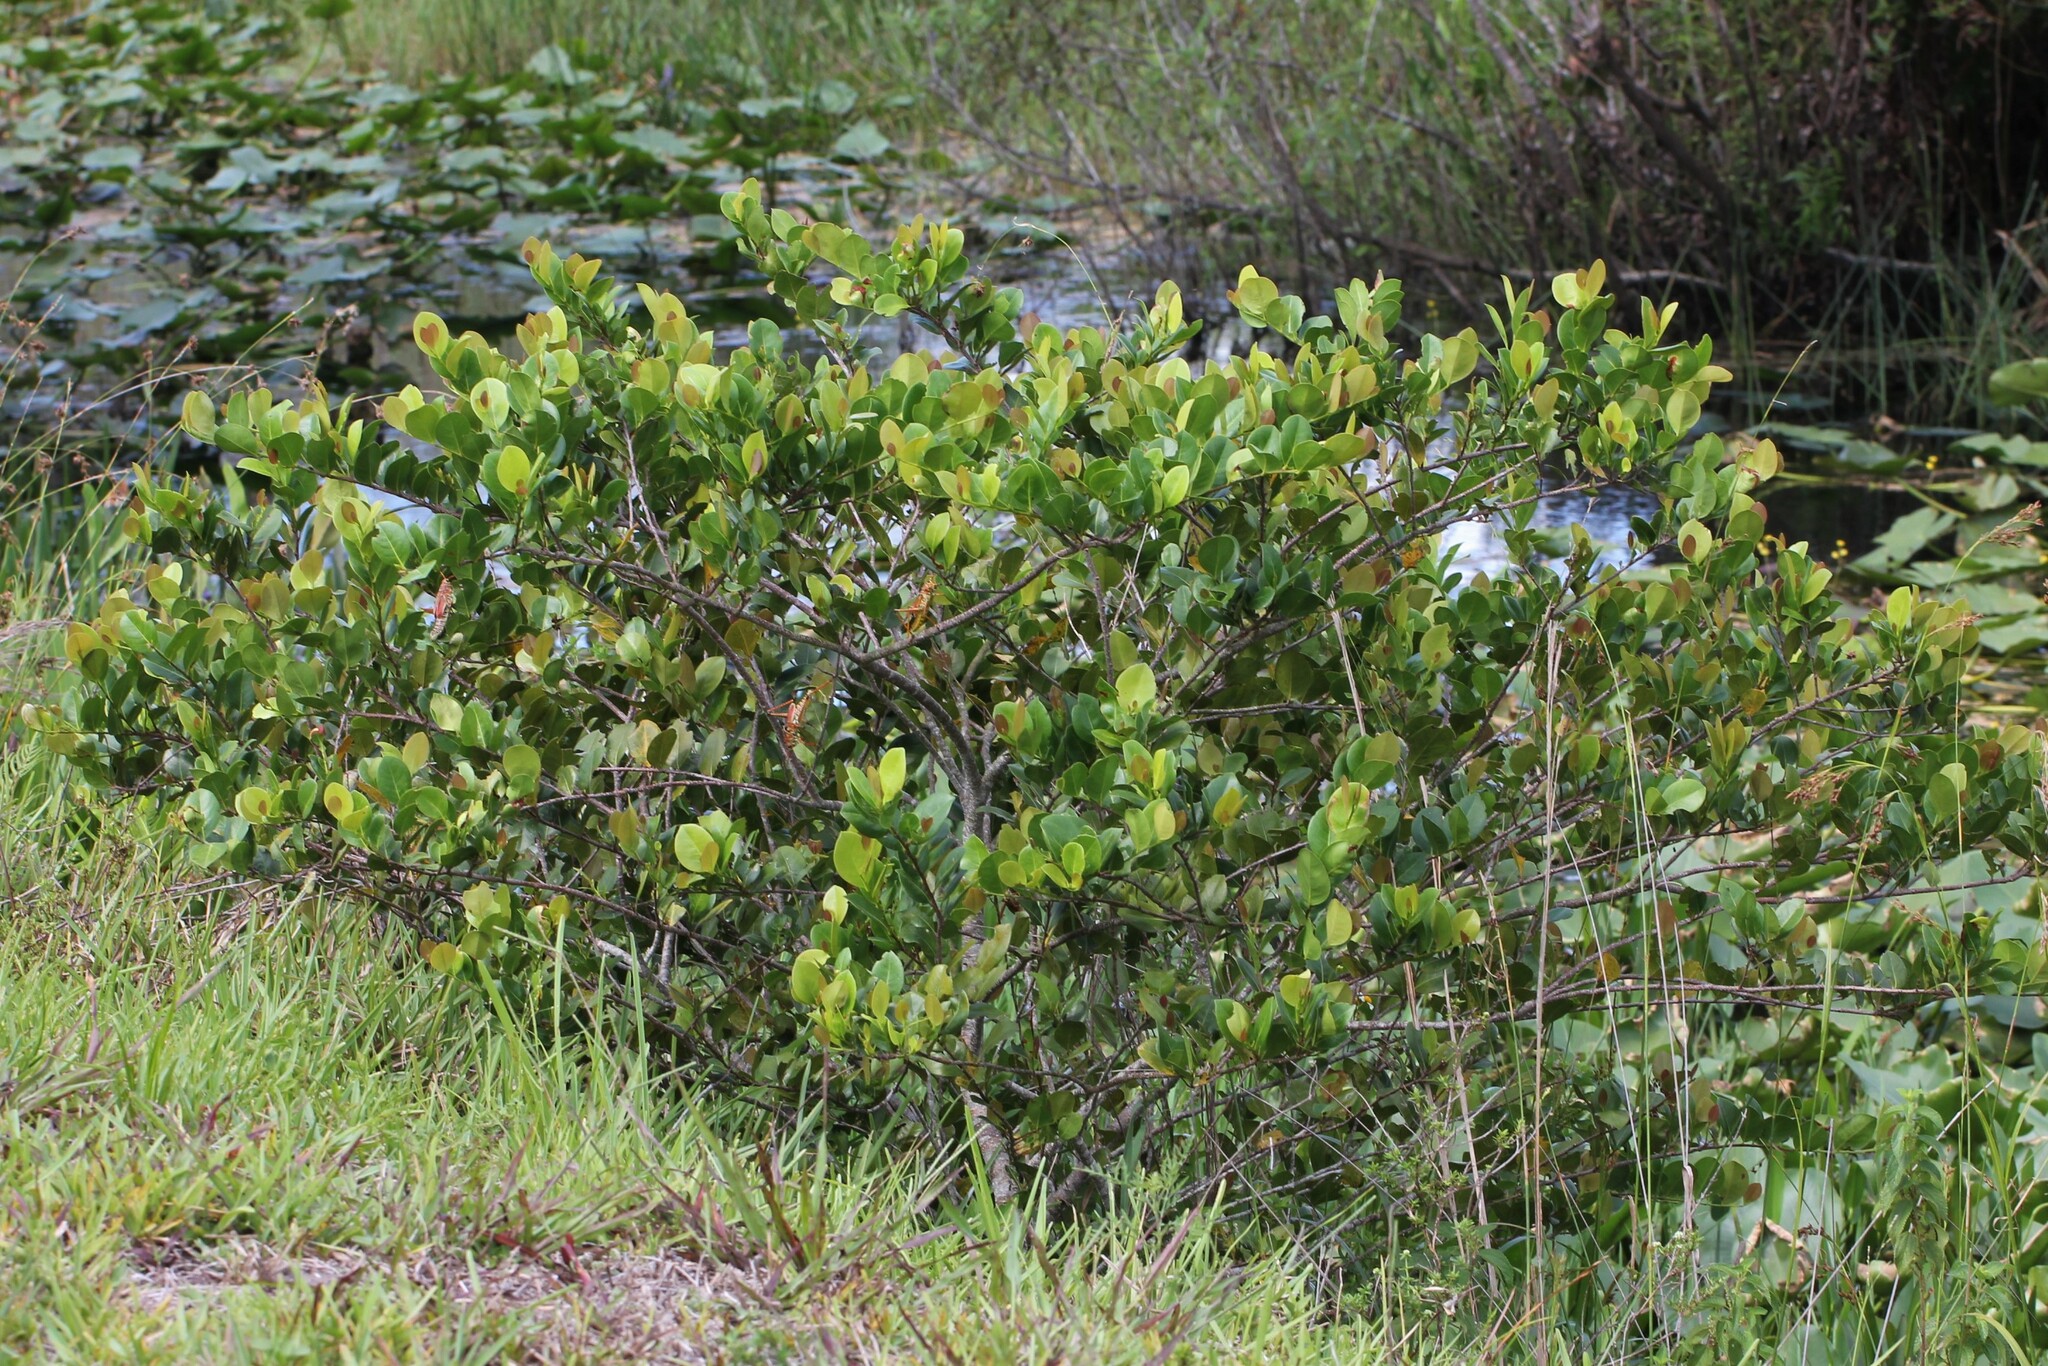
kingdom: Plantae
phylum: Tracheophyta
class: Magnoliopsida
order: Malpighiales
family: Chrysobalanaceae
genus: Chrysobalanus
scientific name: Chrysobalanus icaco
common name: Coco plum
